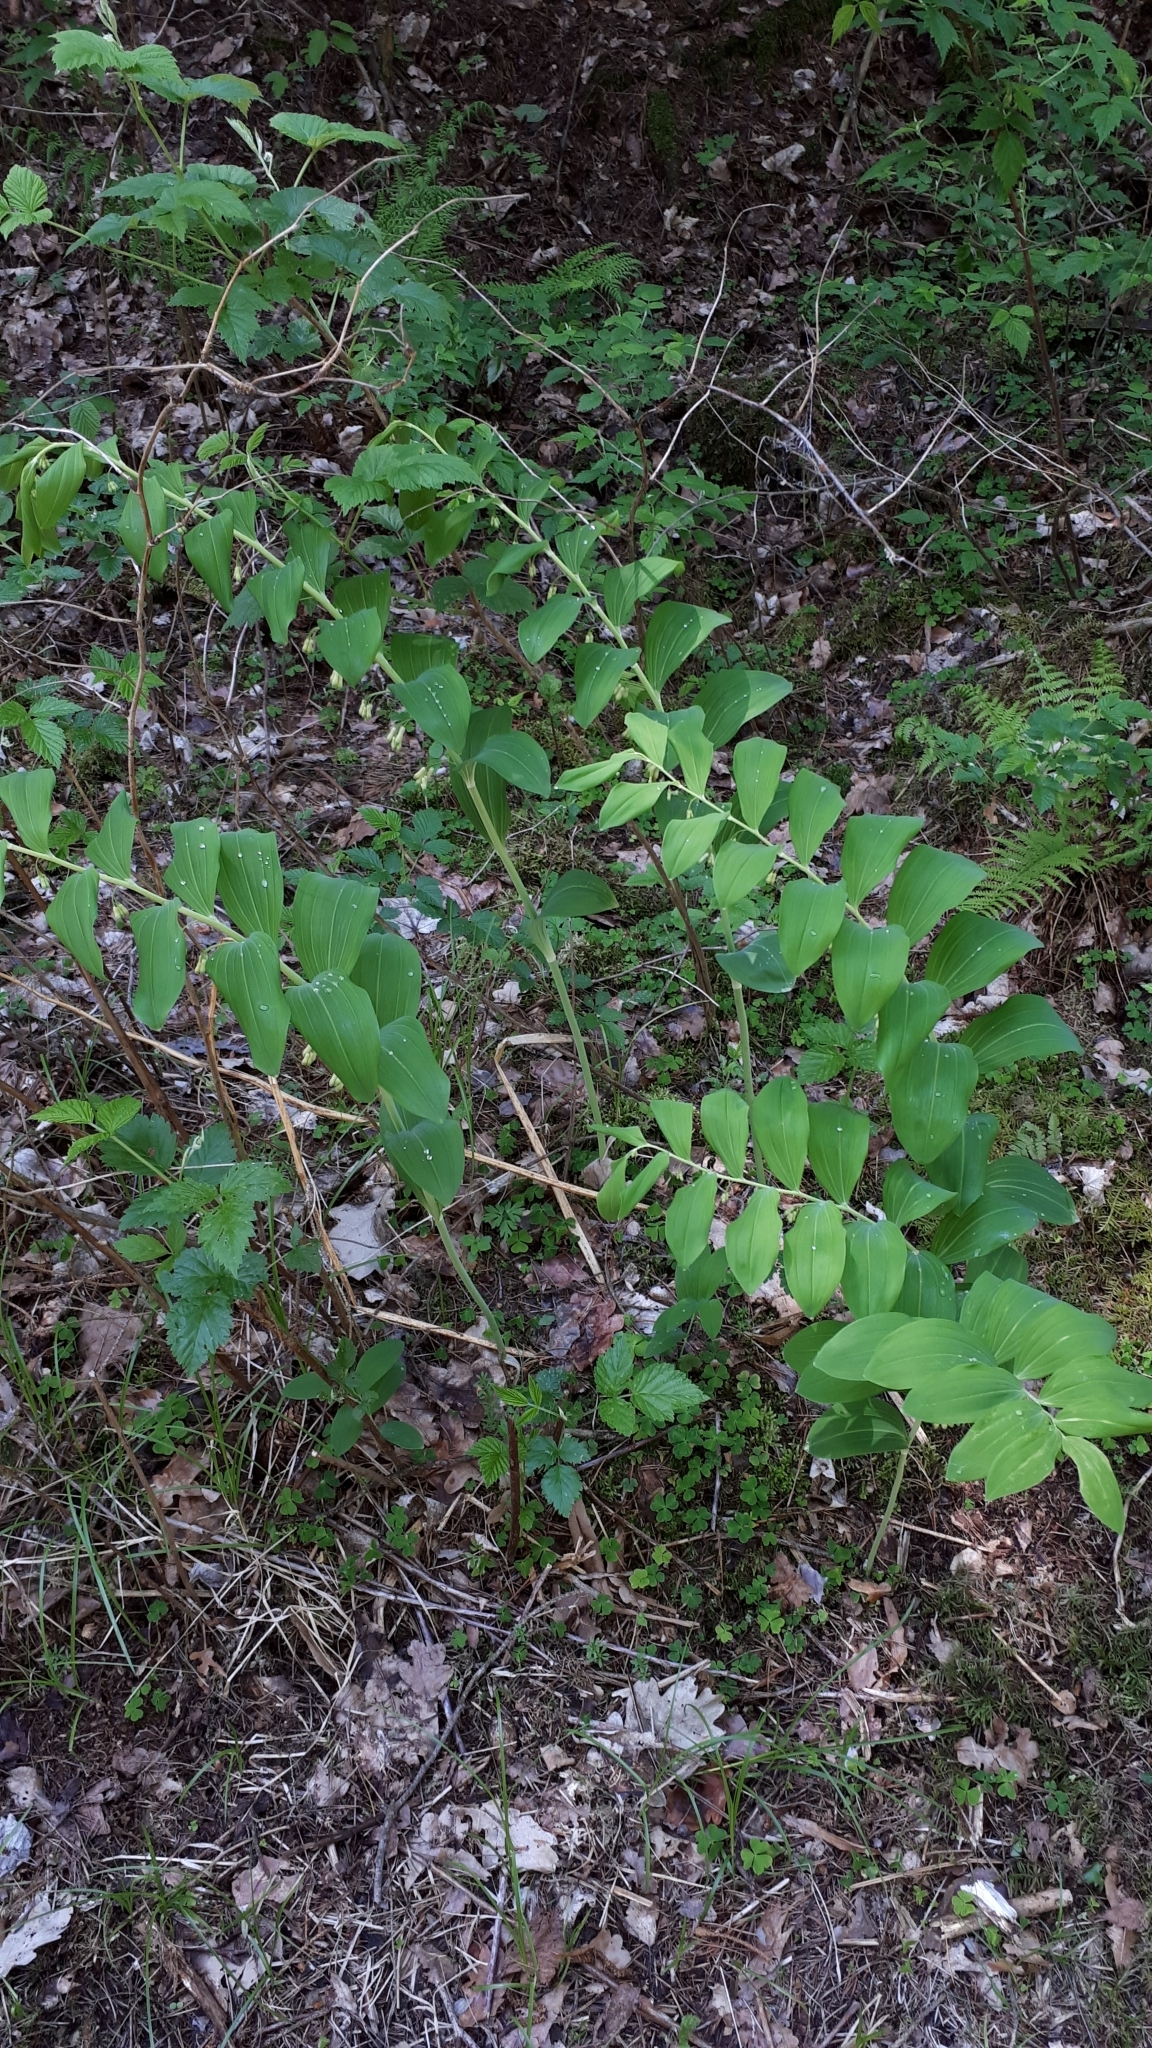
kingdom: Plantae
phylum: Tracheophyta
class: Liliopsida
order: Asparagales
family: Asparagaceae
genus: Polygonatum
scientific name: Polygonatum multiflorum
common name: Solomon's-seal
